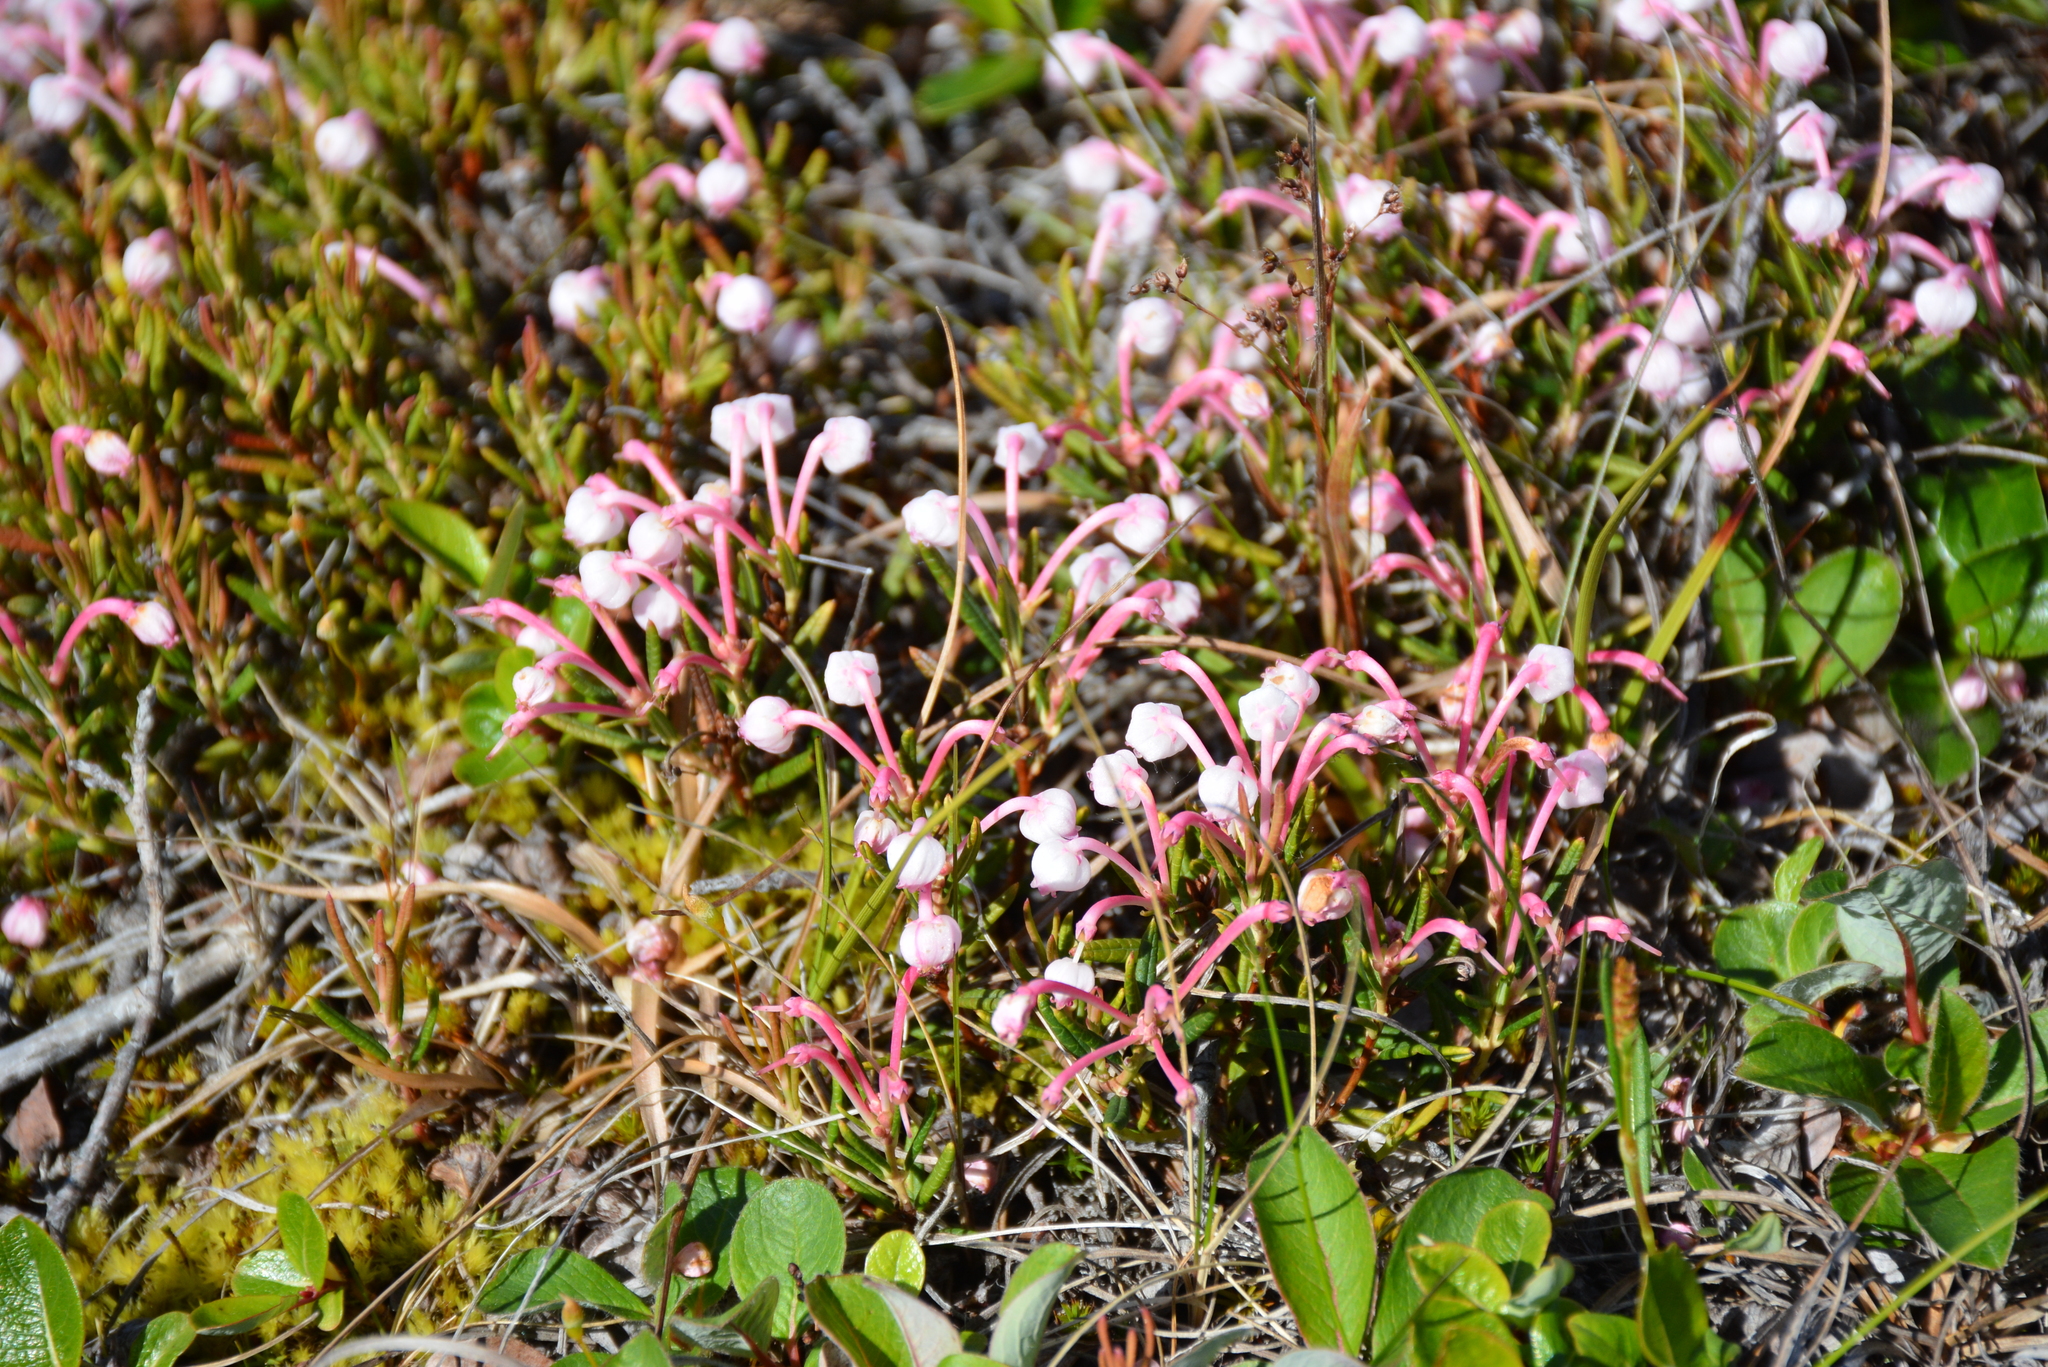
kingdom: Plantae
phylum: Tracheophyta
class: Magnoliopsida
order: Ericales
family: Ericaceae
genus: Andromeda
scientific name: Andromeda polifolia
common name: Bog-rosemary
